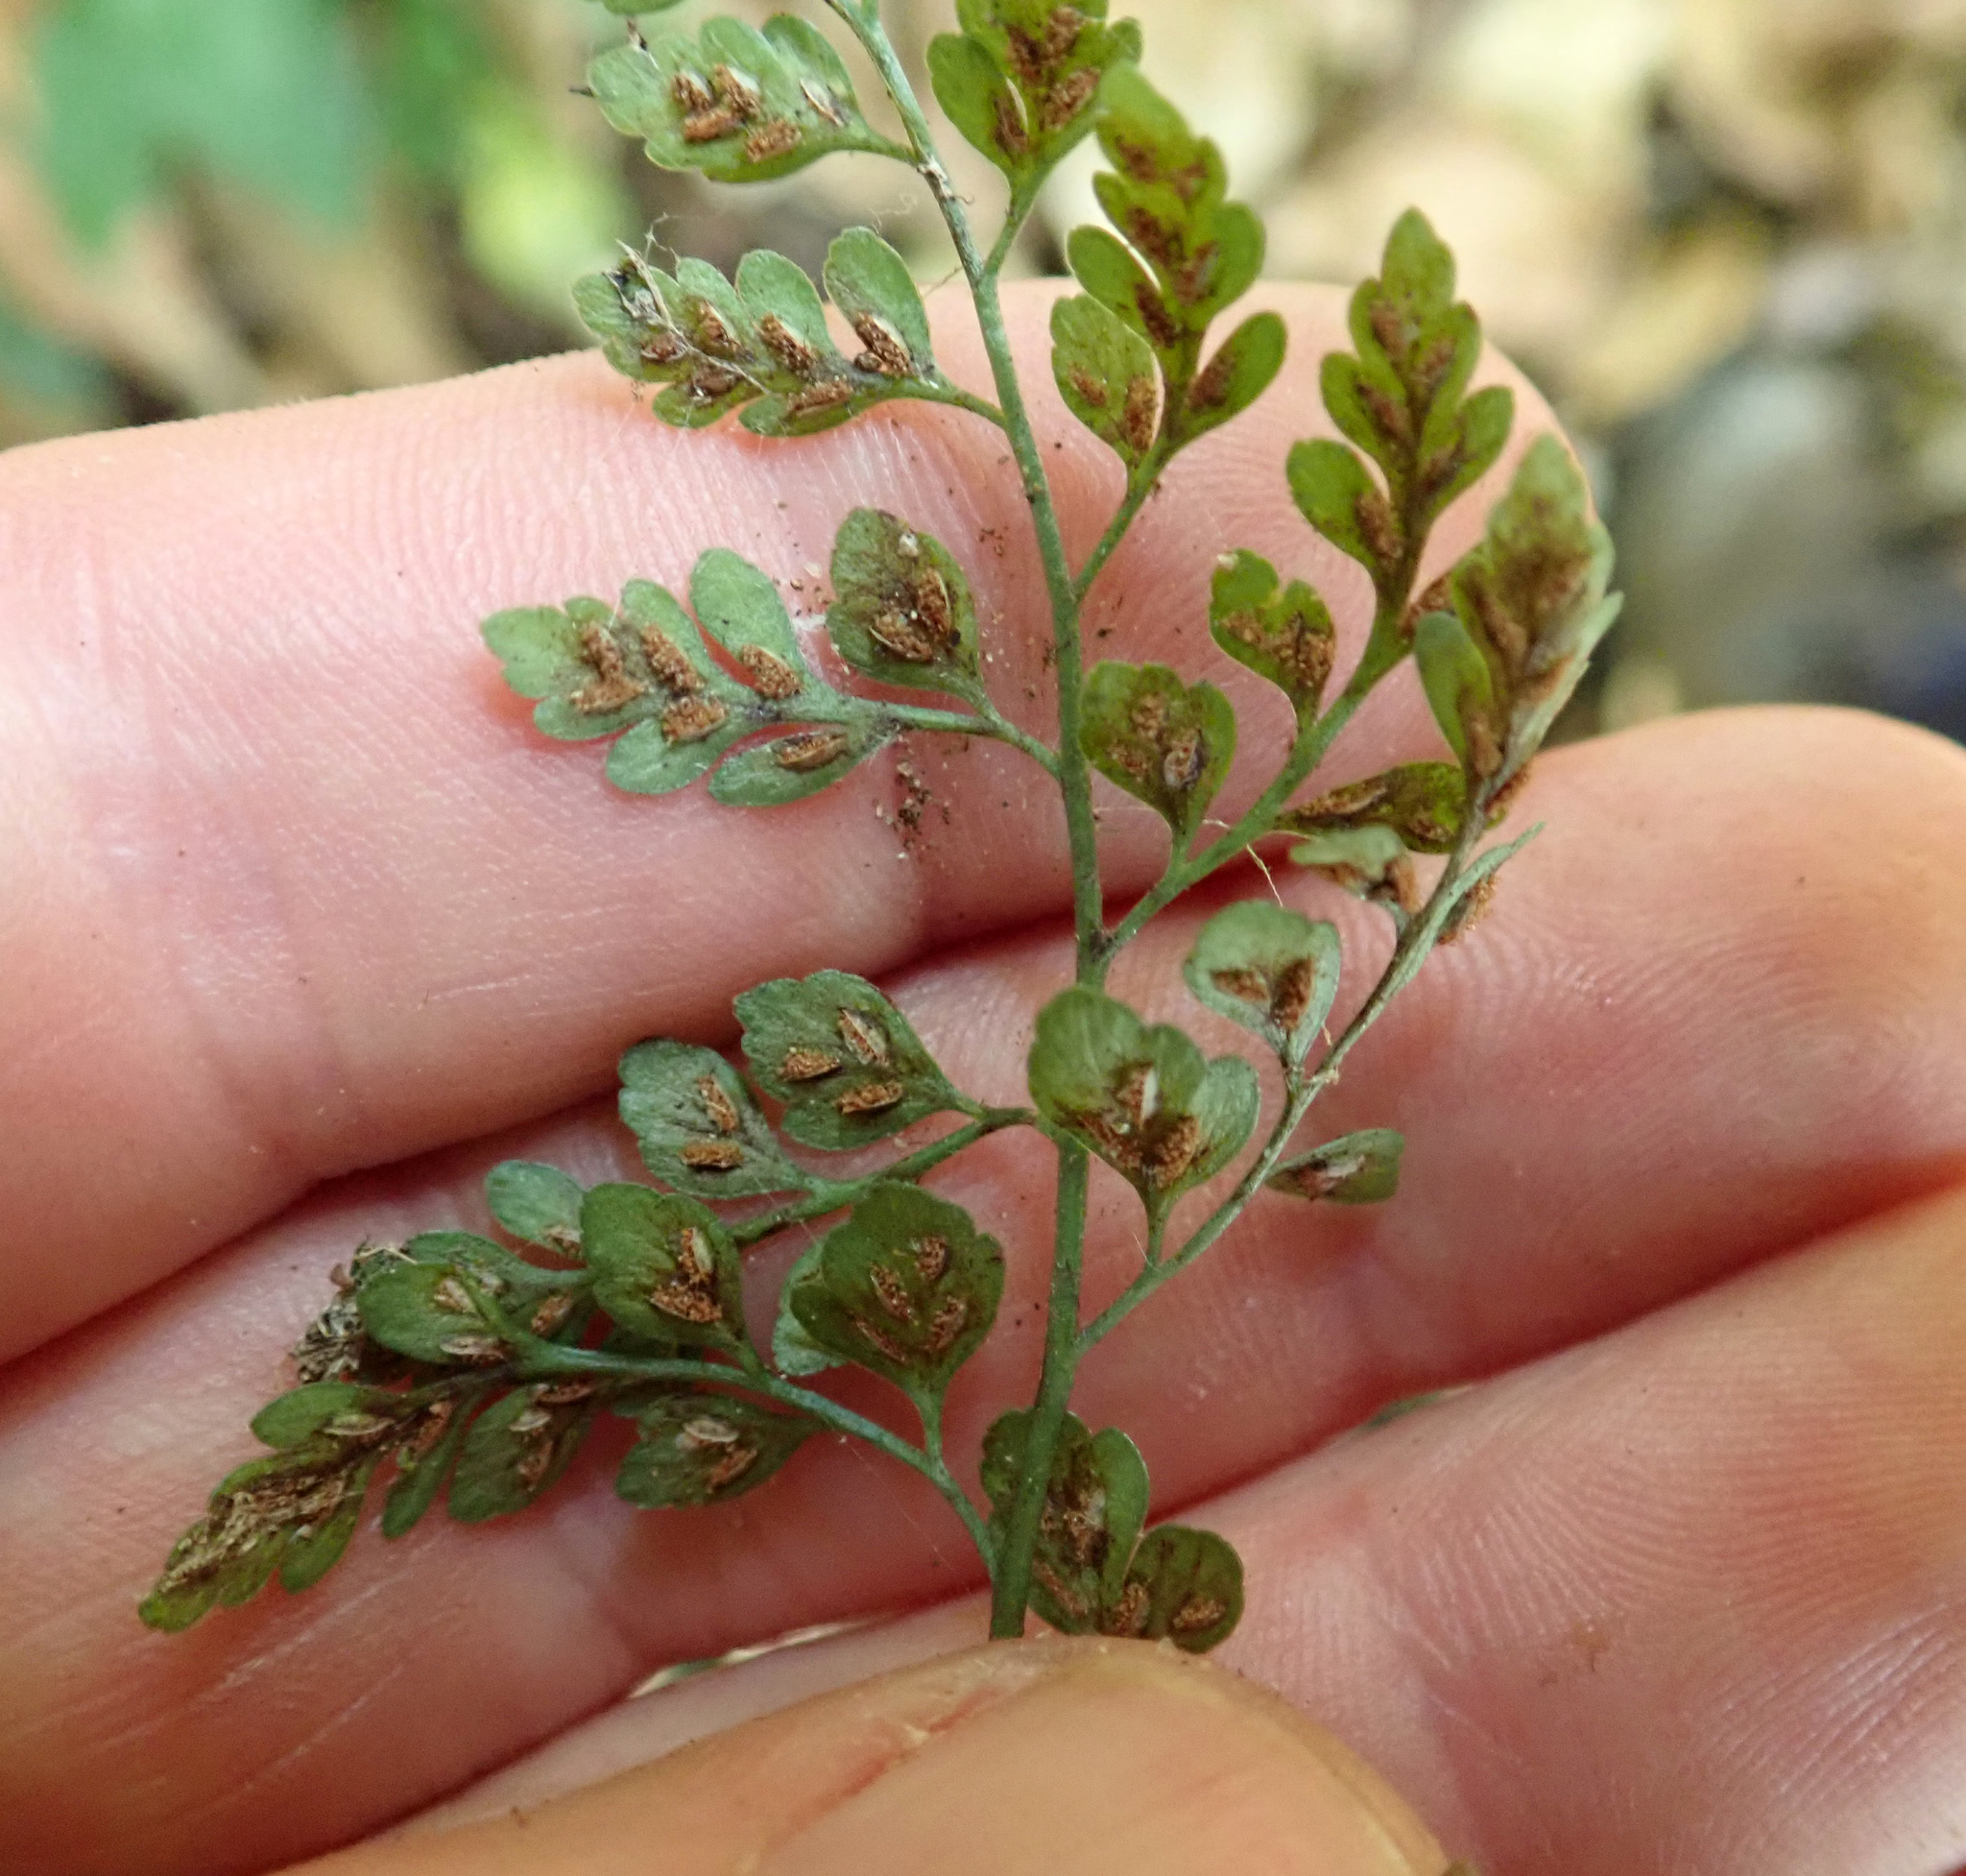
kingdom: Plantae
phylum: Tracheophyta
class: Polypodiopsida
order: Polypodiales
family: Aspleniaceae
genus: Asplenium
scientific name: Asplenium hookerianum
